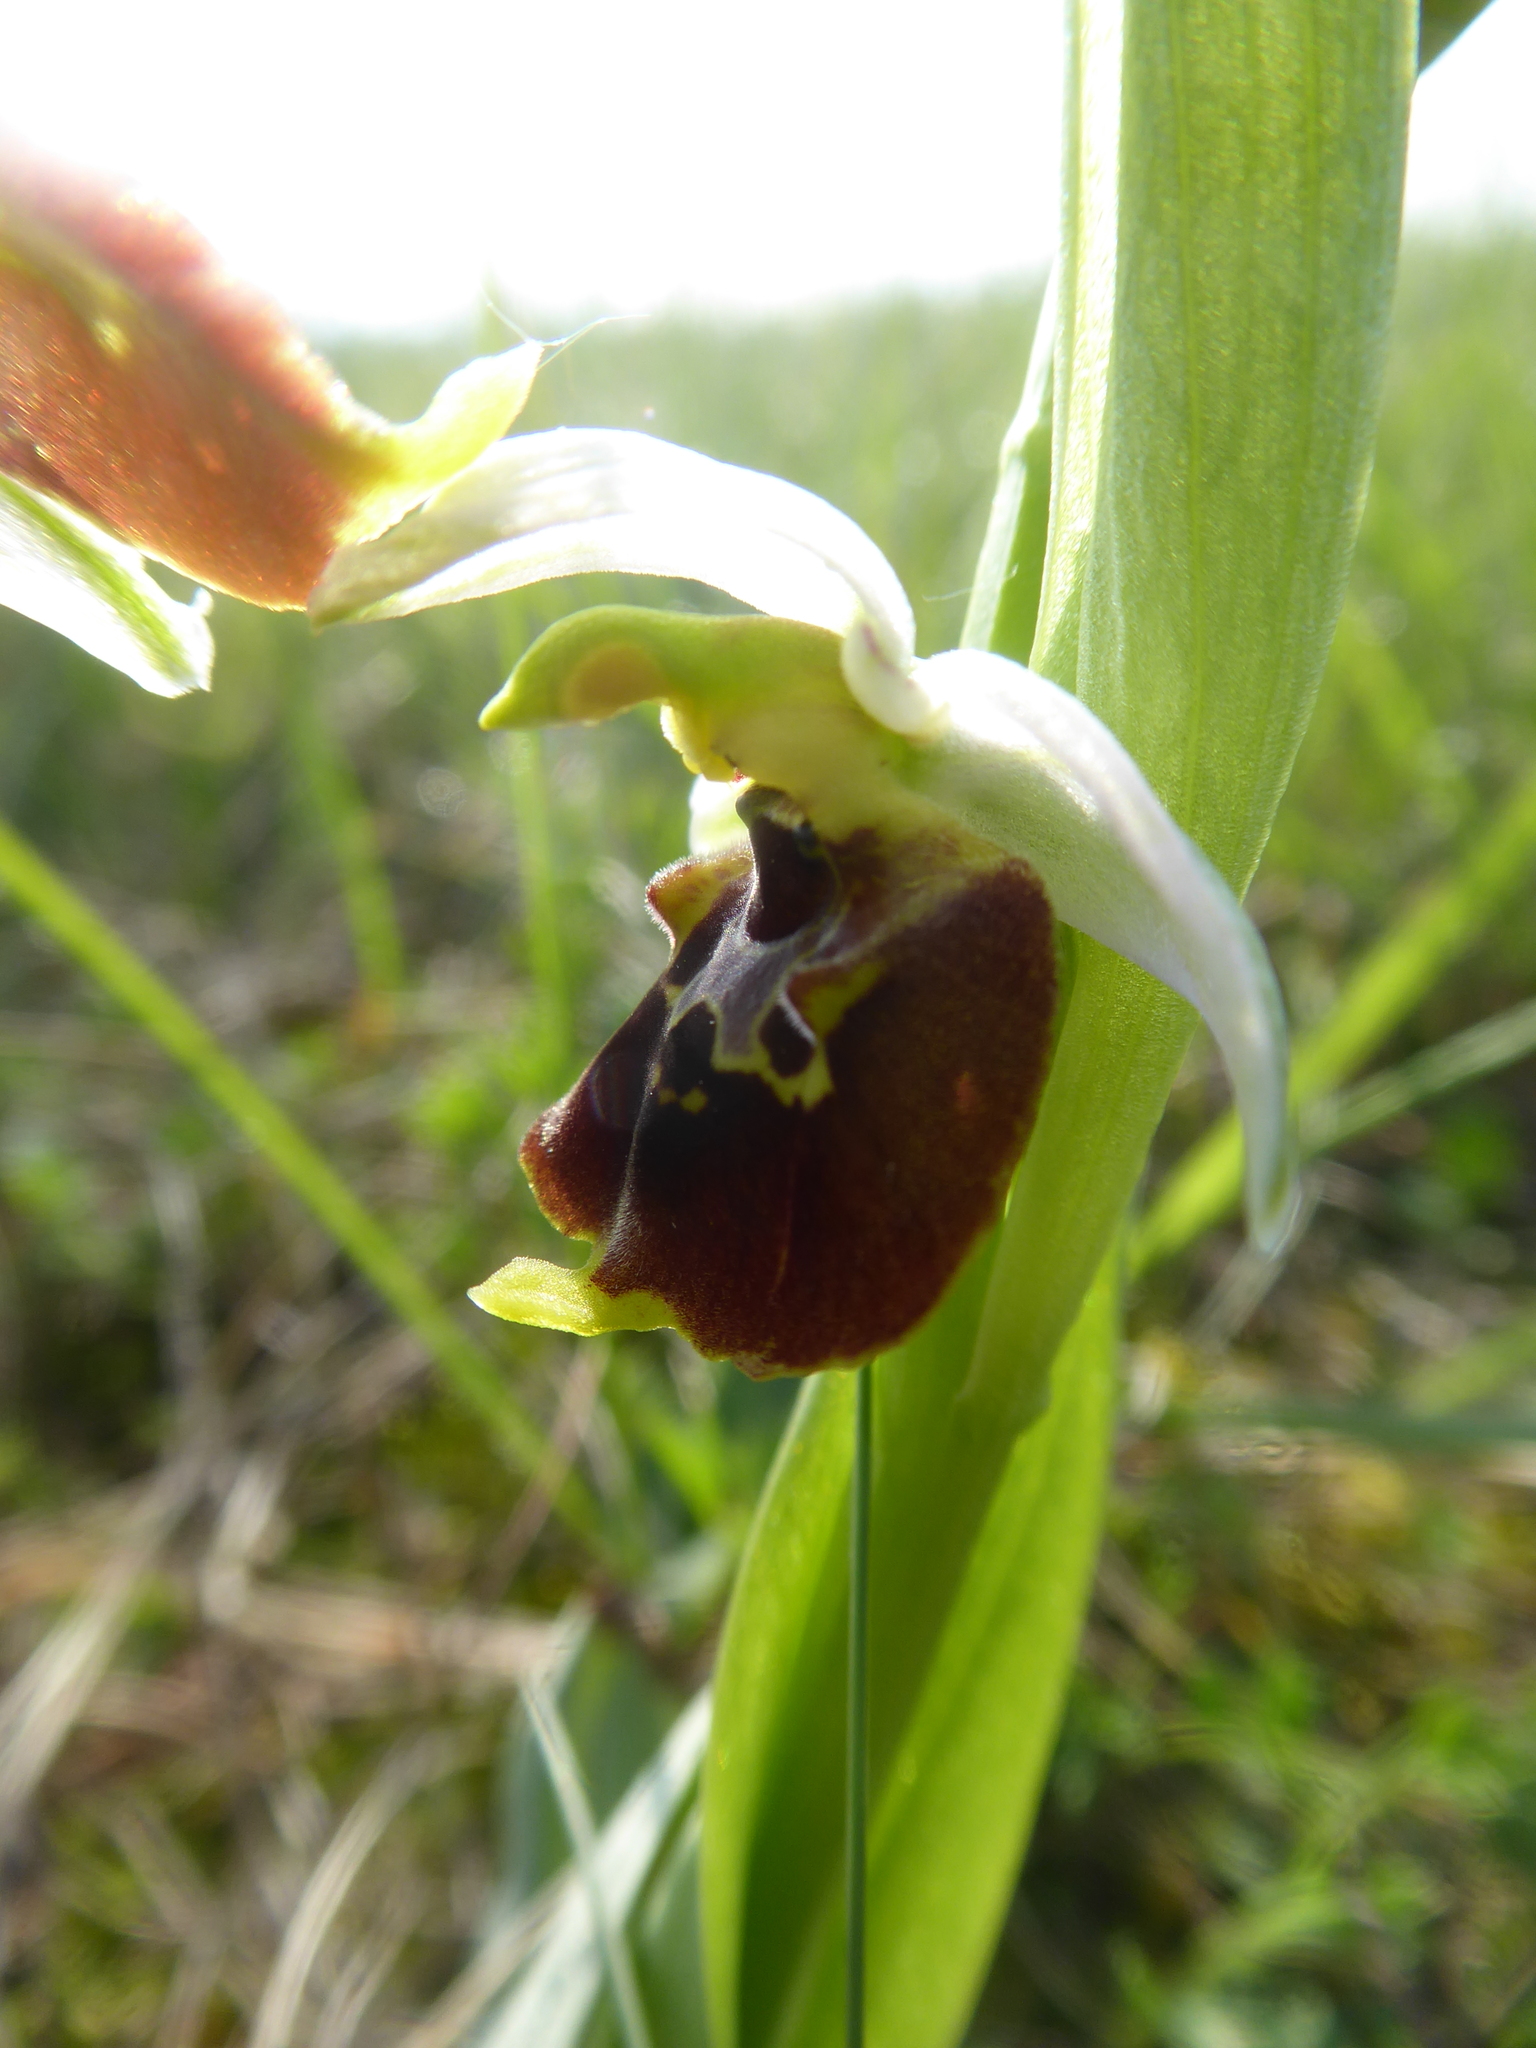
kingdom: Plantae
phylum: Tracheophyta
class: Liliopsida
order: Asparagales
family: Orchidaceae
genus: Ophrys
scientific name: Ophrys holosericea
